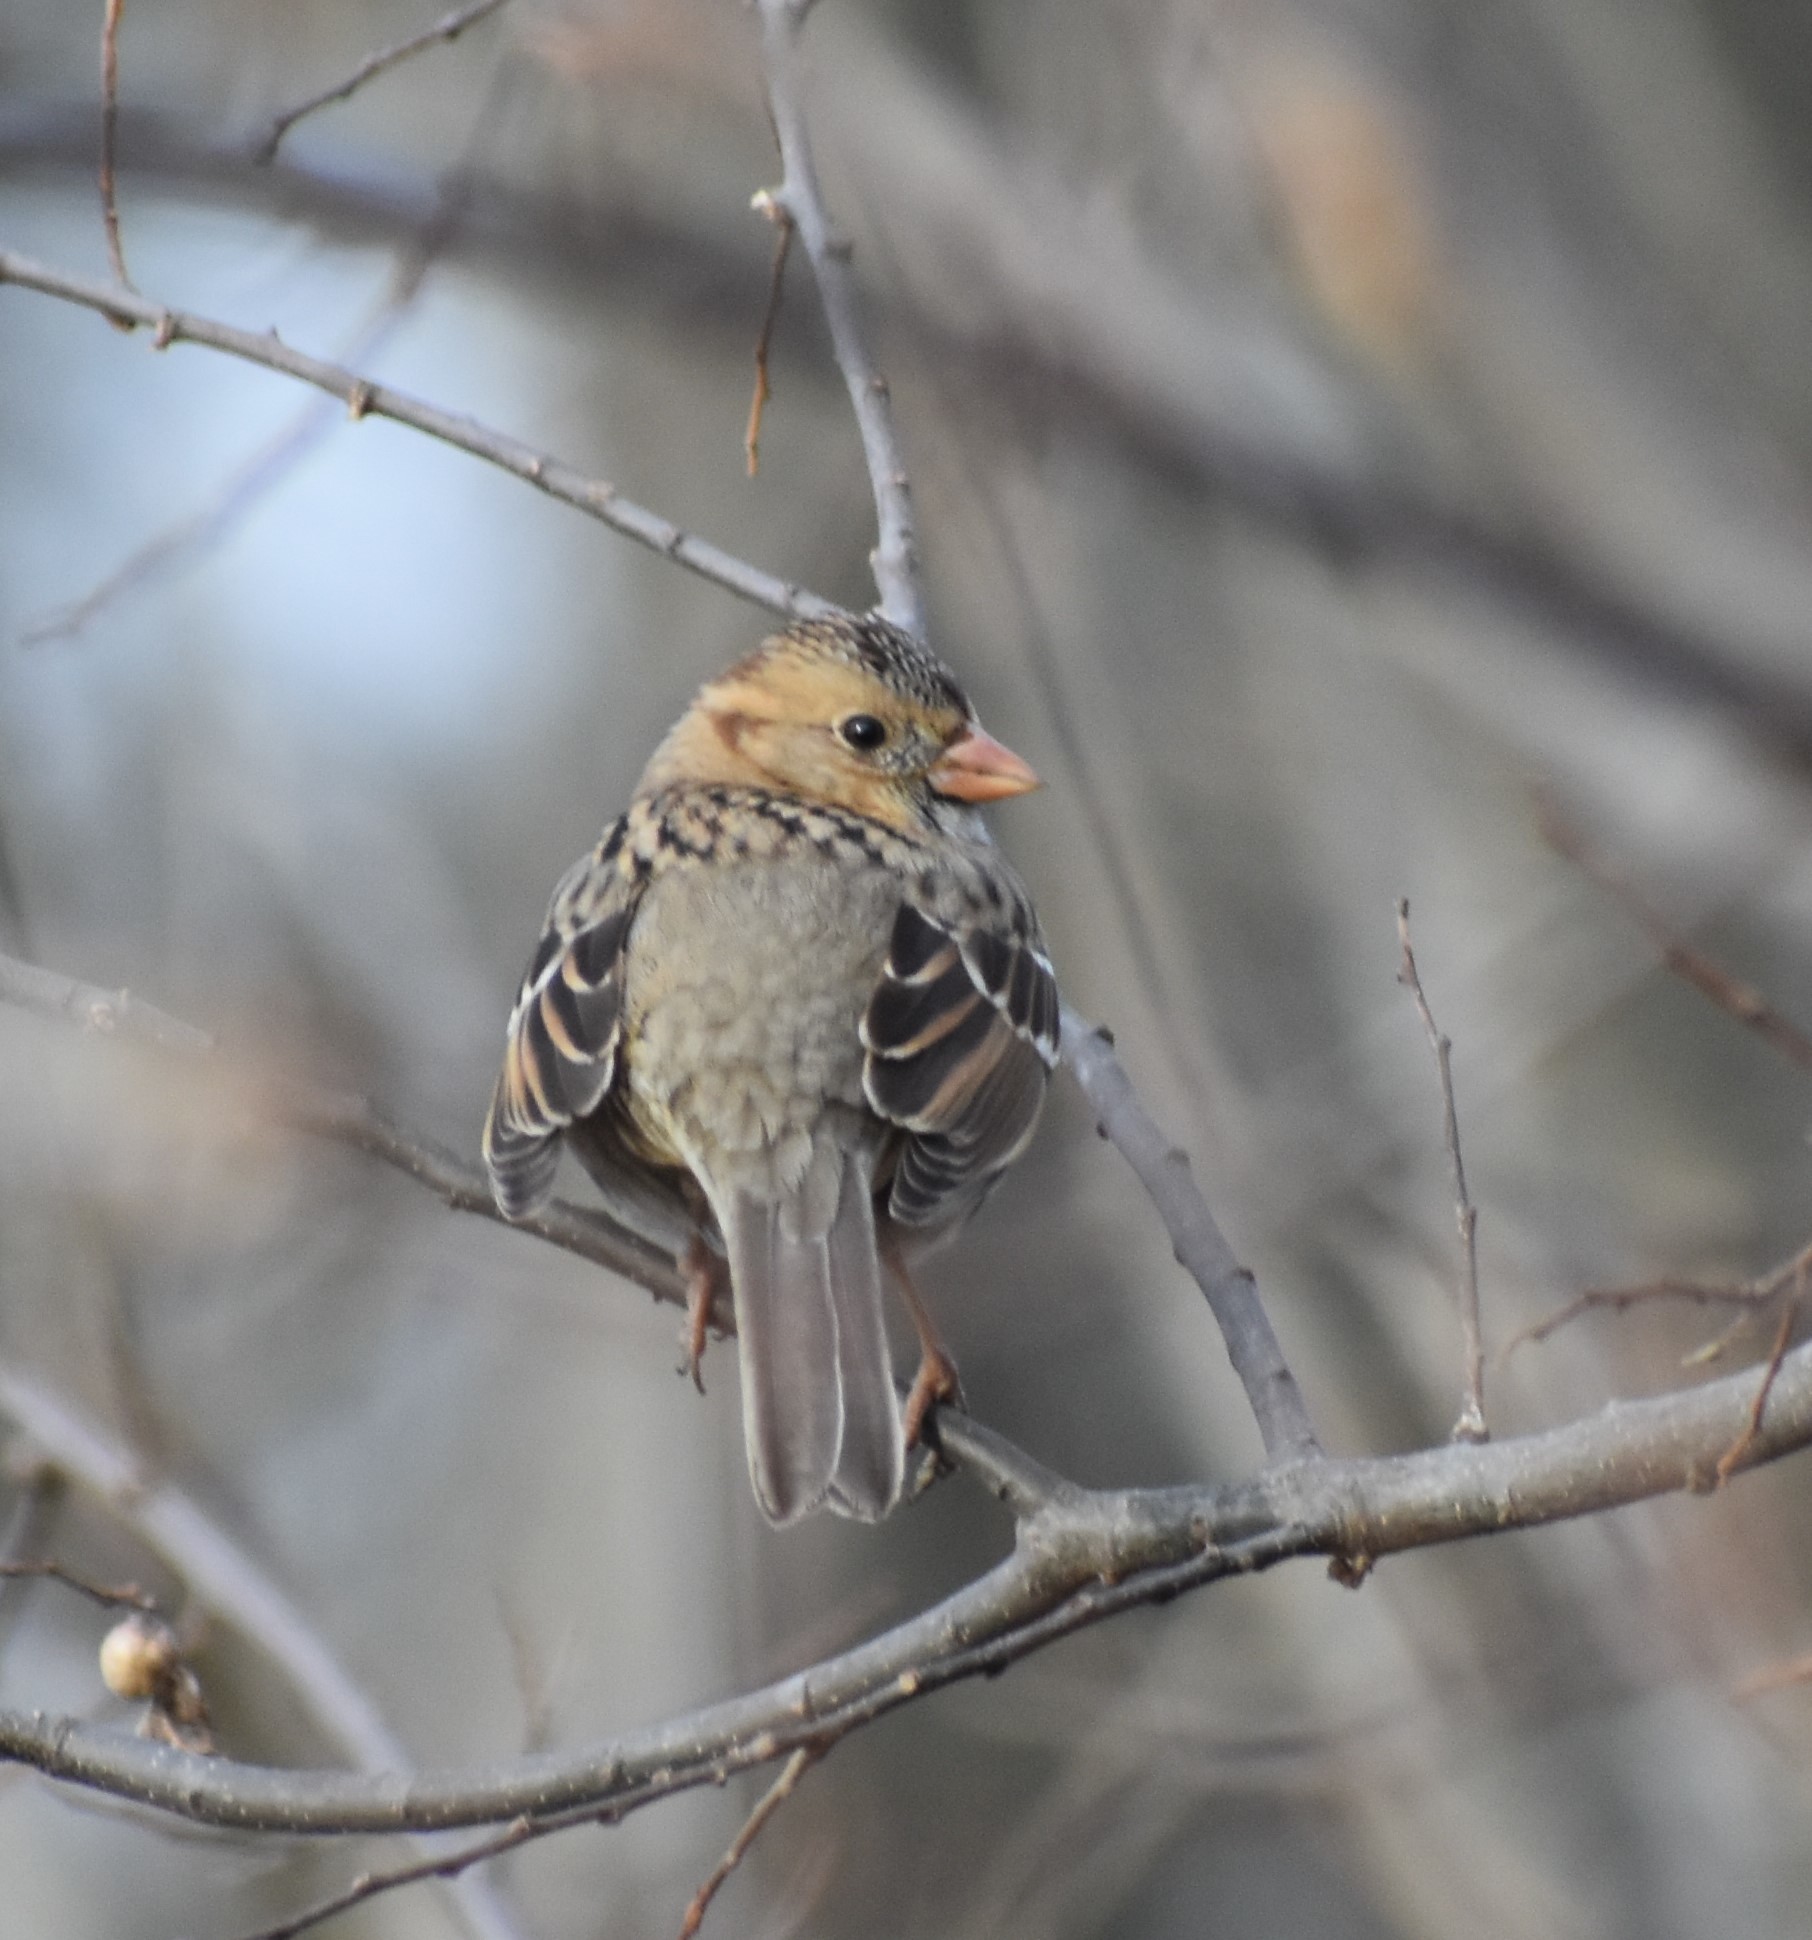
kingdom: Animalia
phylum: Chordata
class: Aves
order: Passeriformes
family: Passerellidae
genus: Zonotrichia
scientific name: Zonotrichia querula
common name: Harris's sparrow
